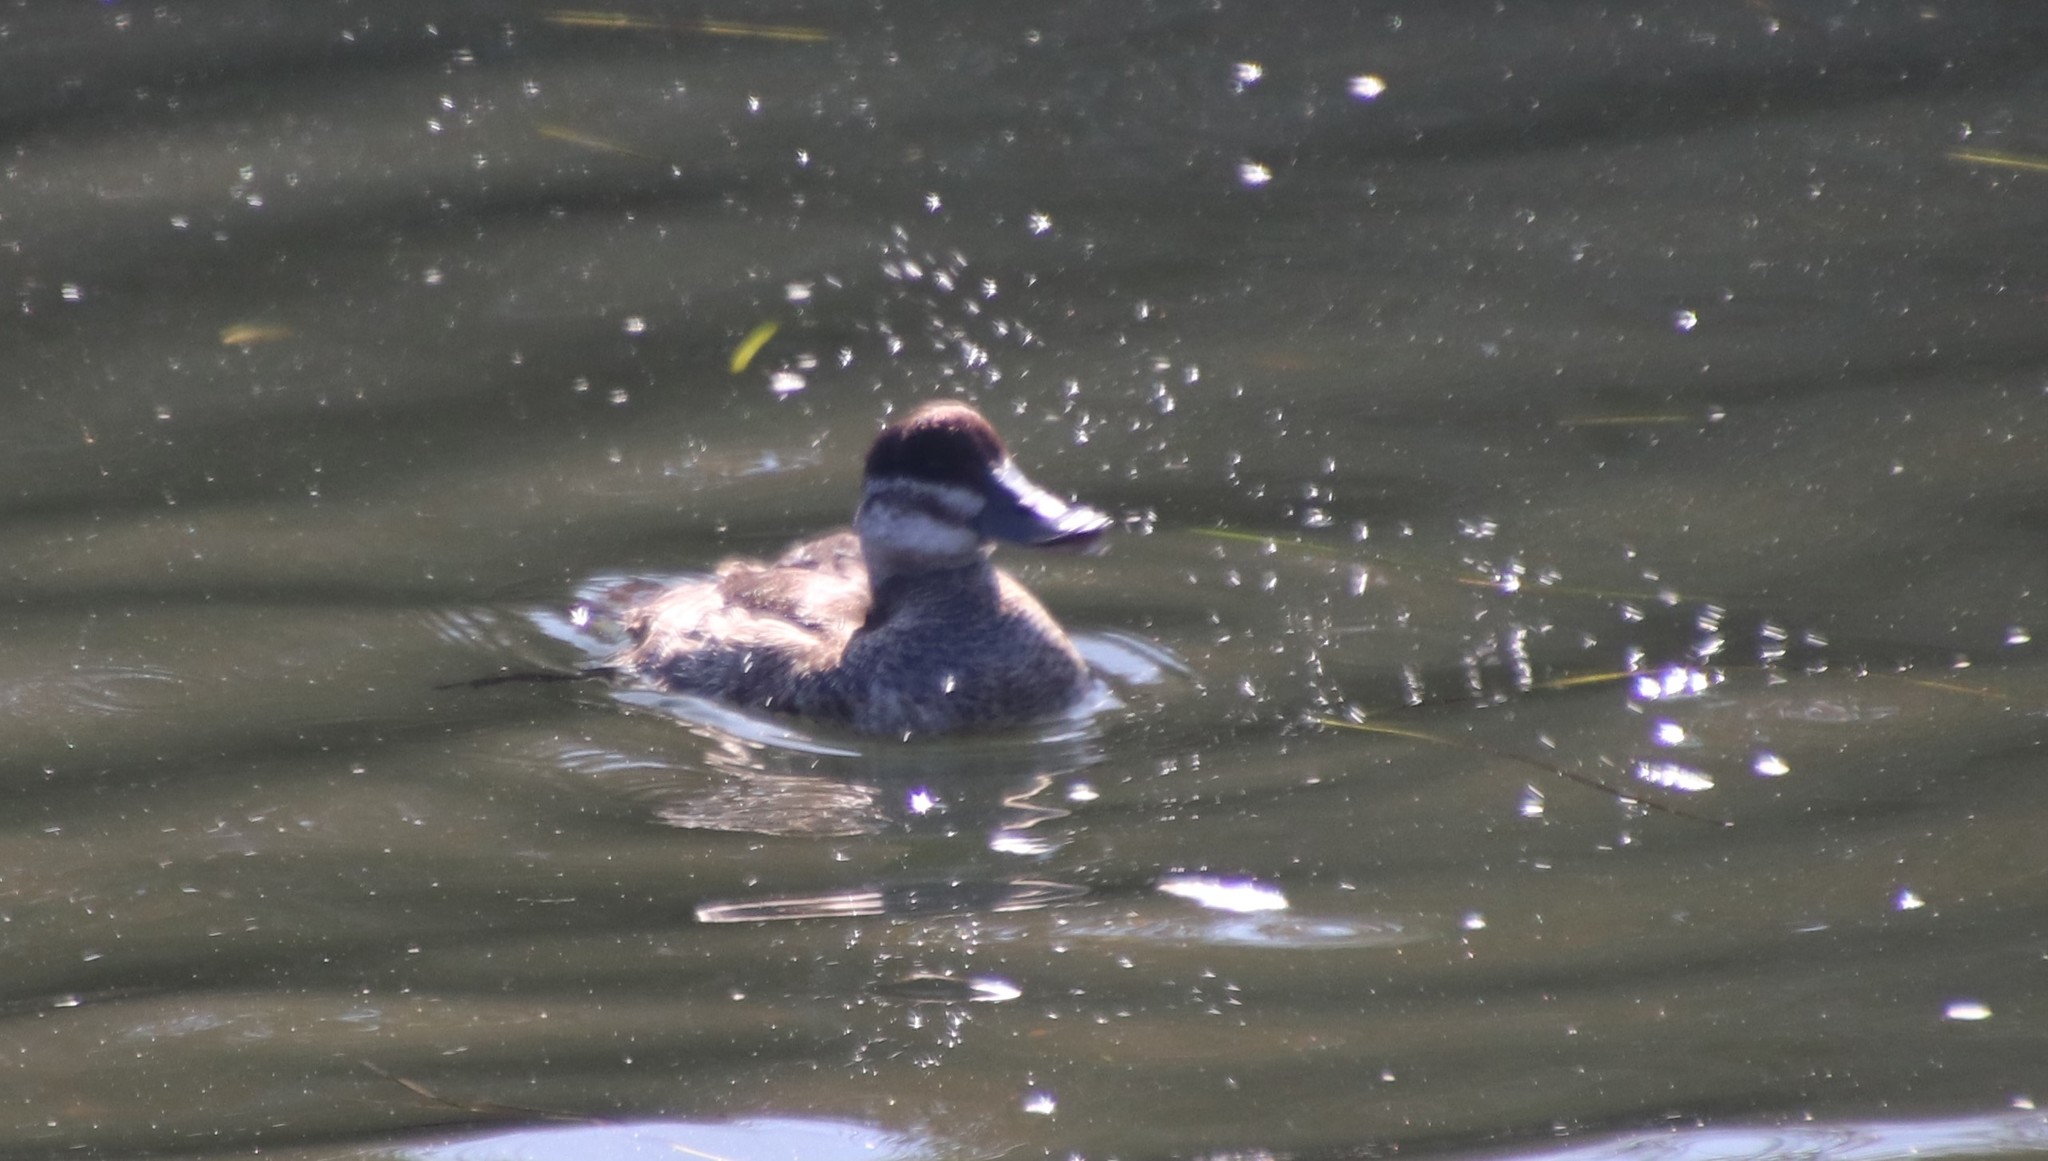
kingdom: Animalia
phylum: Chordata
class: Aves
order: Anseriformes
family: Anatidae
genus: Oxyura
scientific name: Oxyura jamaicensis
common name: Ruddy duck
